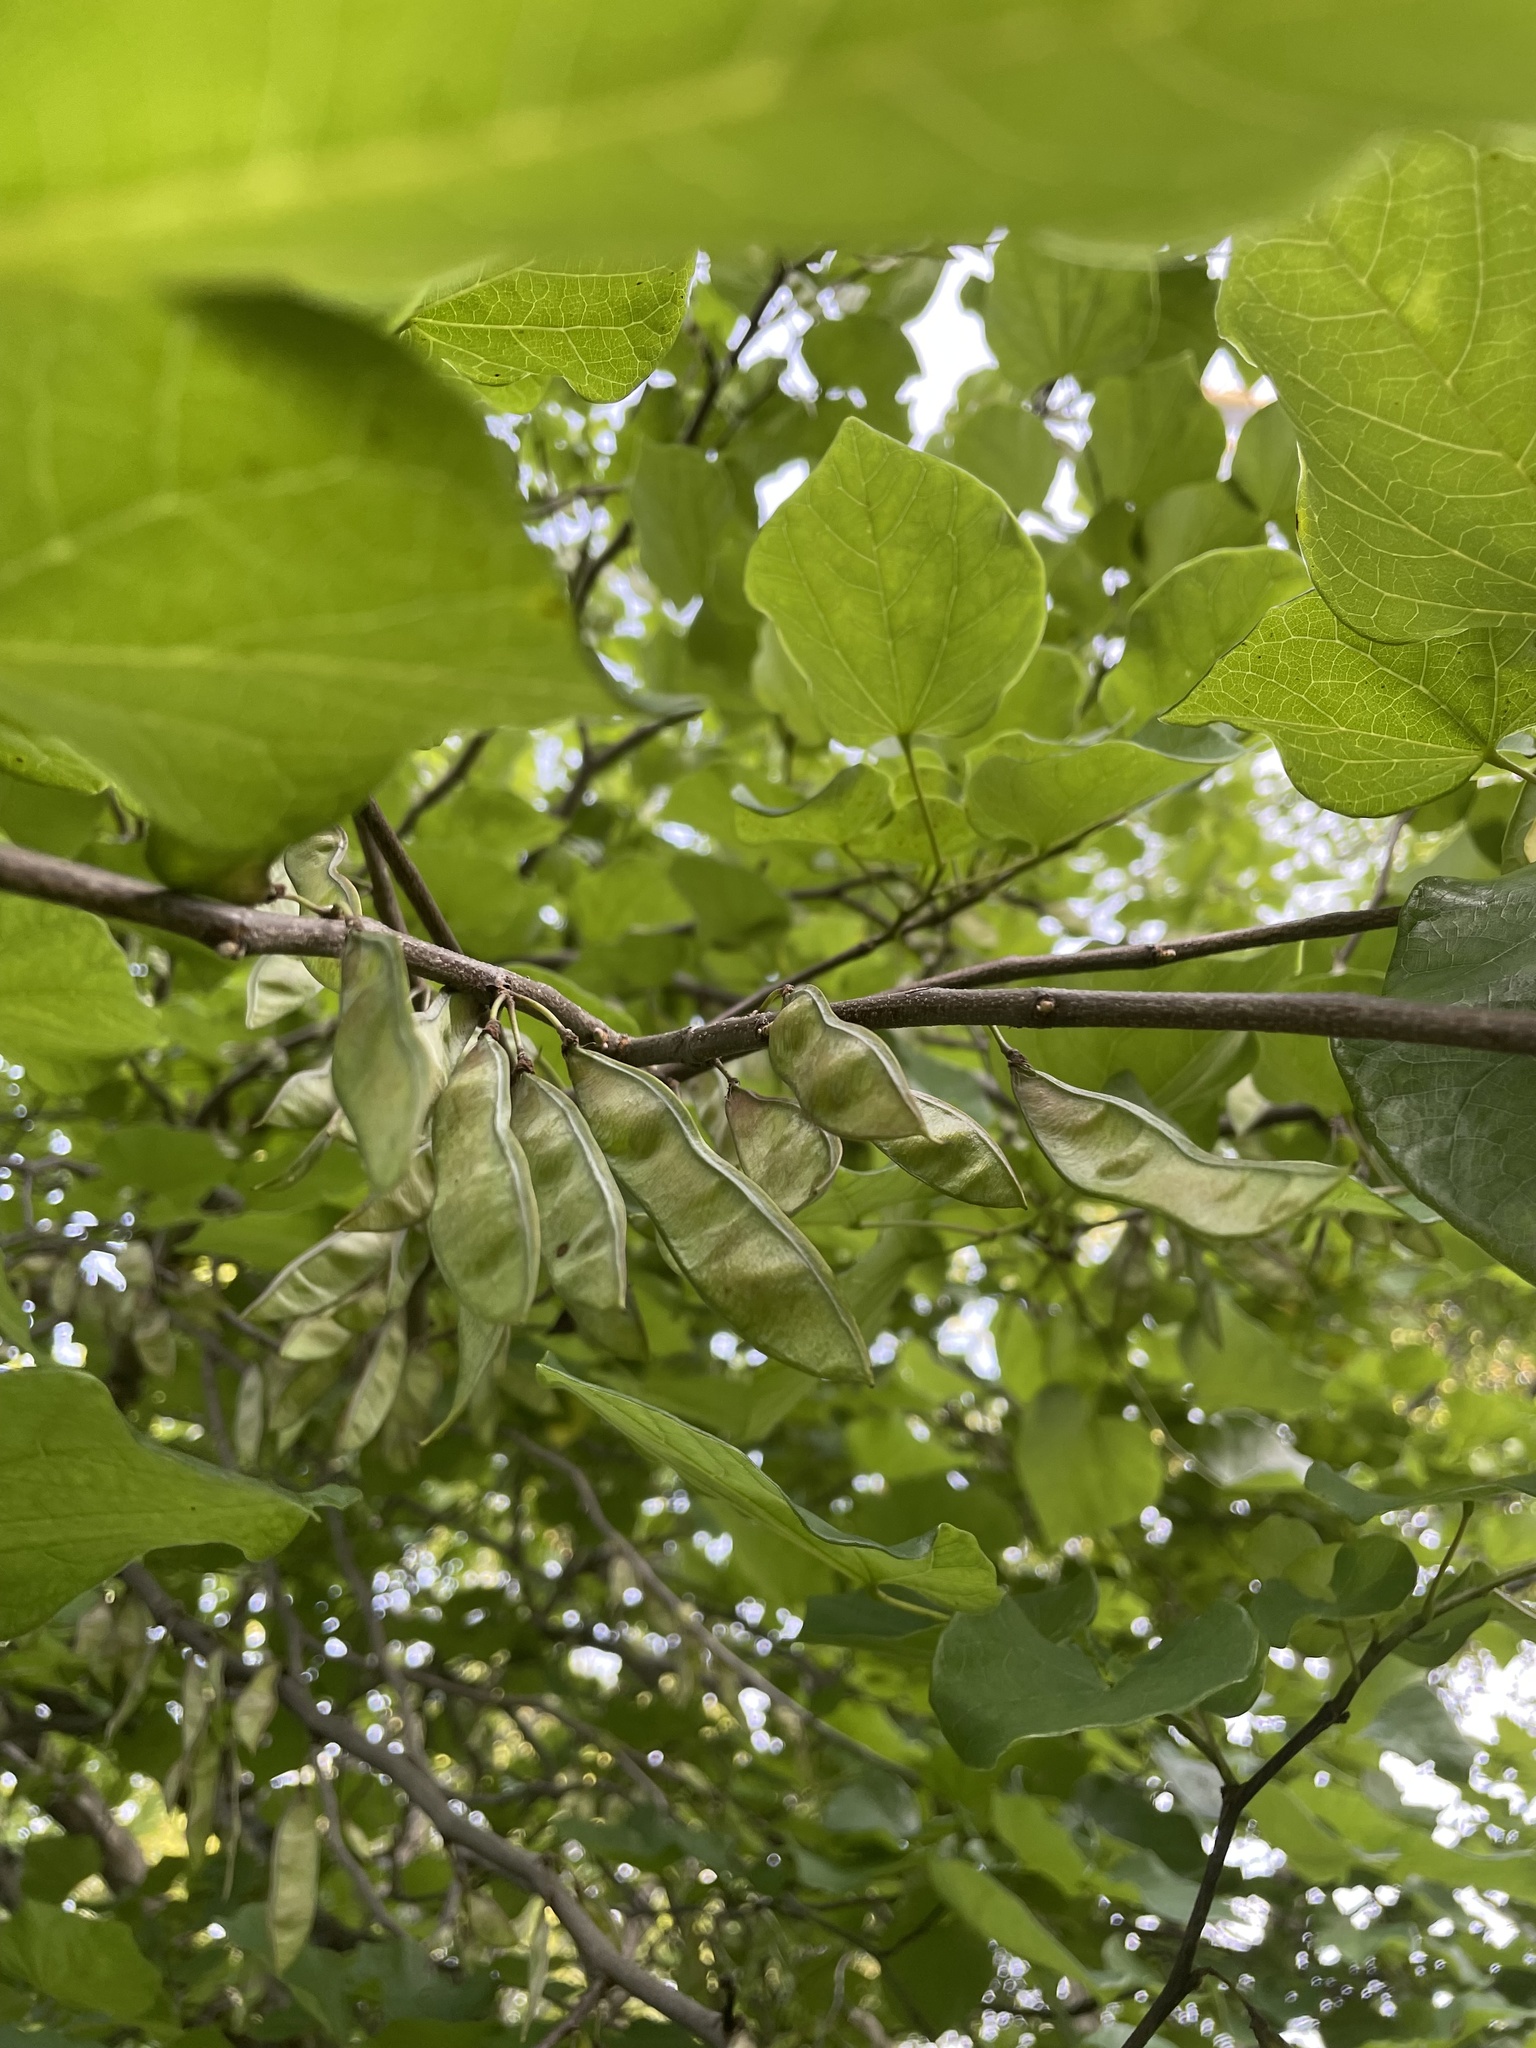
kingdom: Plantae
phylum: Tracheophyta
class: Magnoliopsida
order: Fabales
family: Fabaceae
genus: Cercis
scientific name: Cercis canadensis
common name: Eastern redbud
